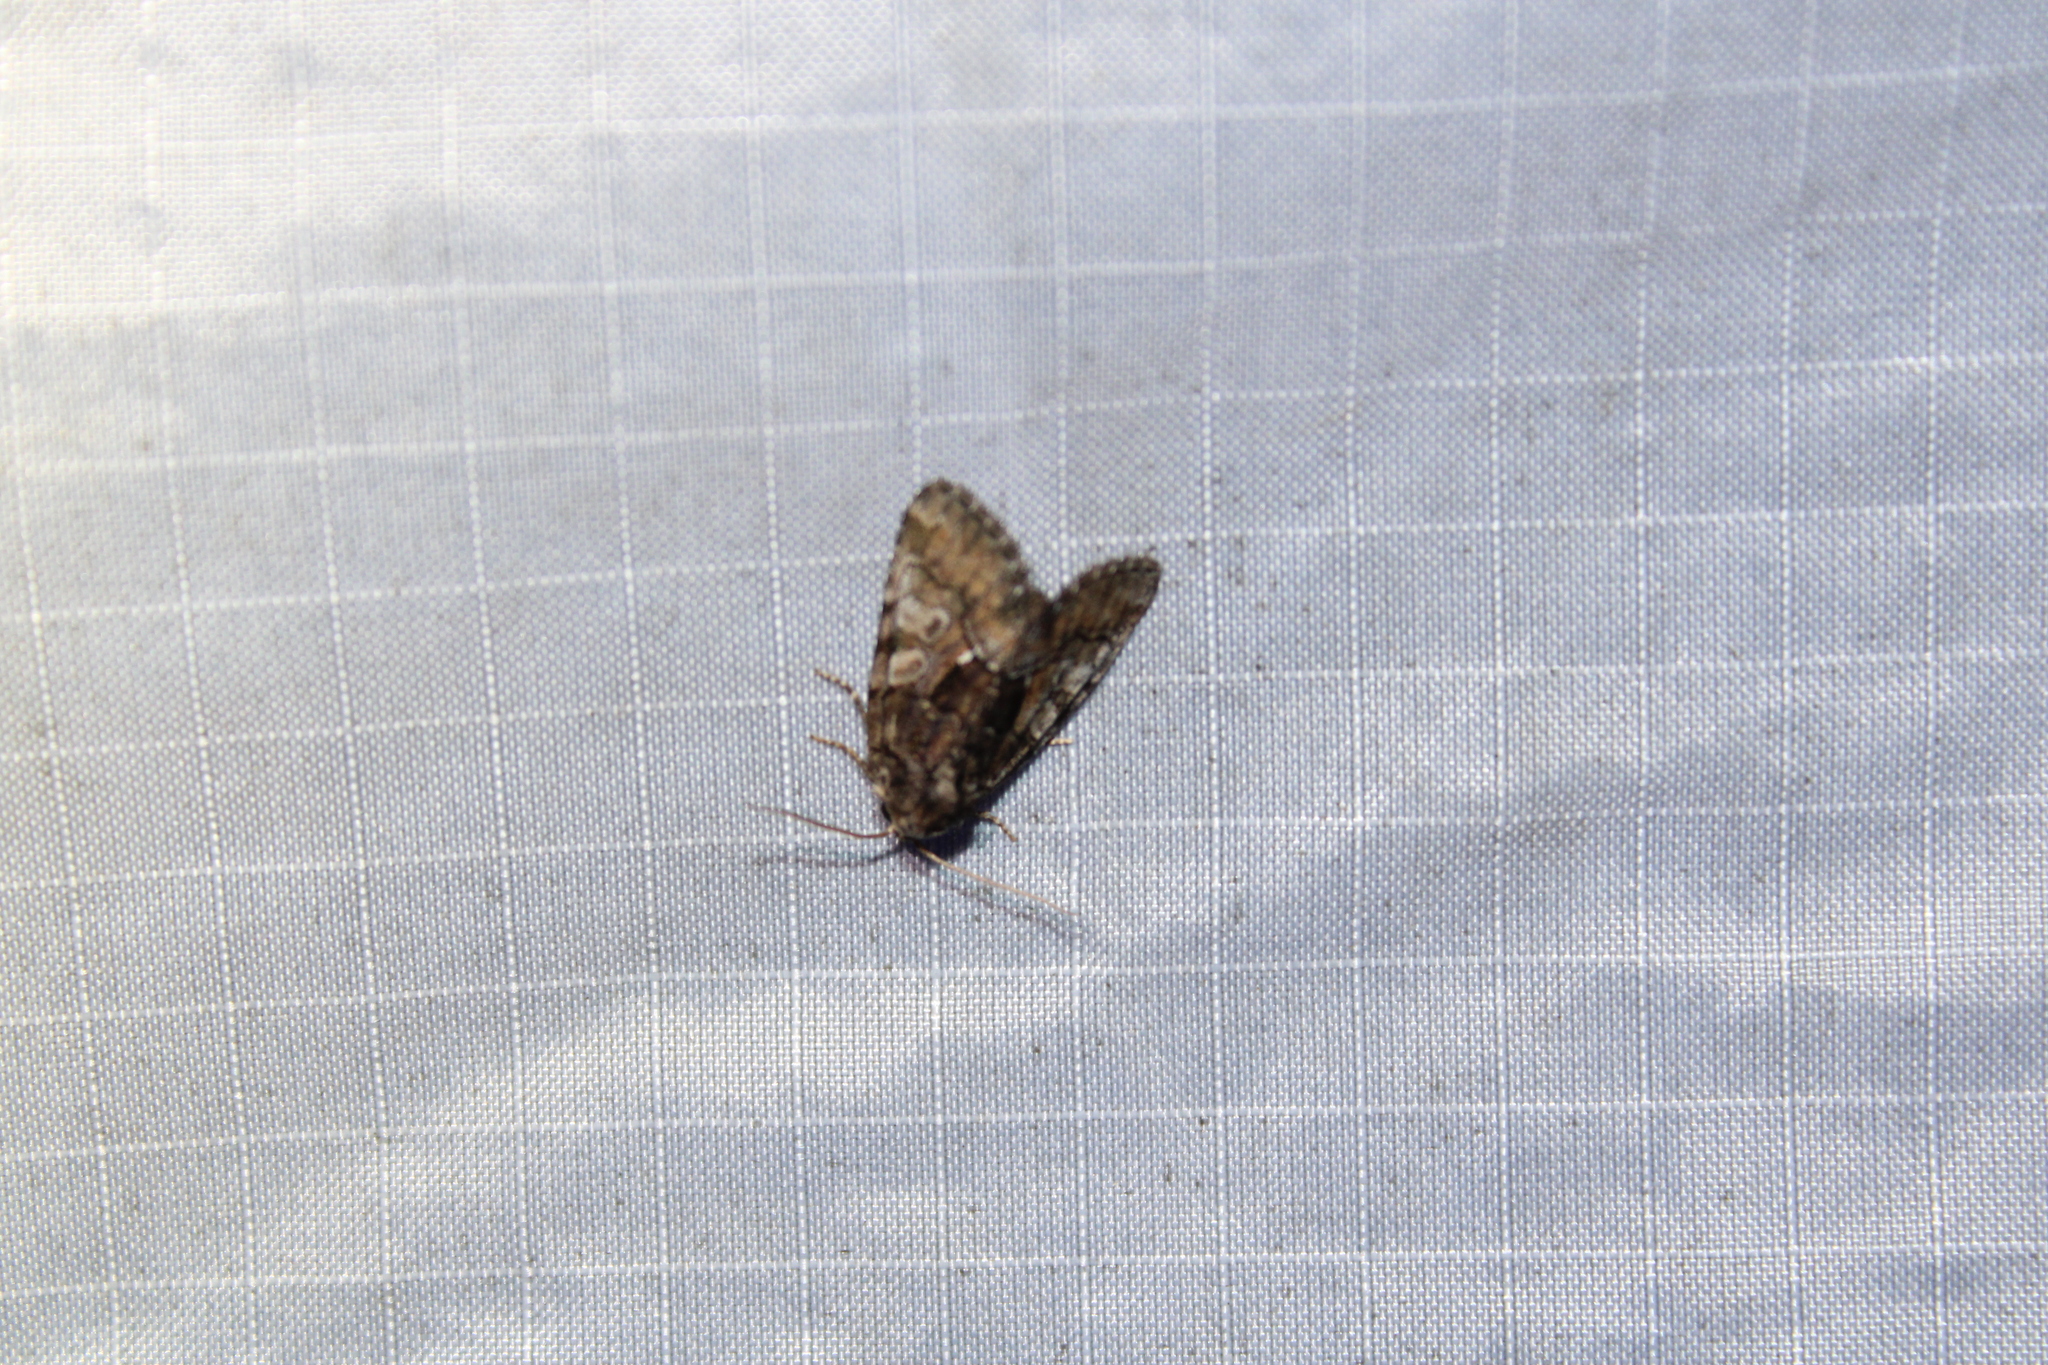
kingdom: Animalia
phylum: Arthropoda
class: Insecta
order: Lepidoptera
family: Noctuidae
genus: Chytonix
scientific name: Chytonix palliatricula
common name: Cloaked marvel
